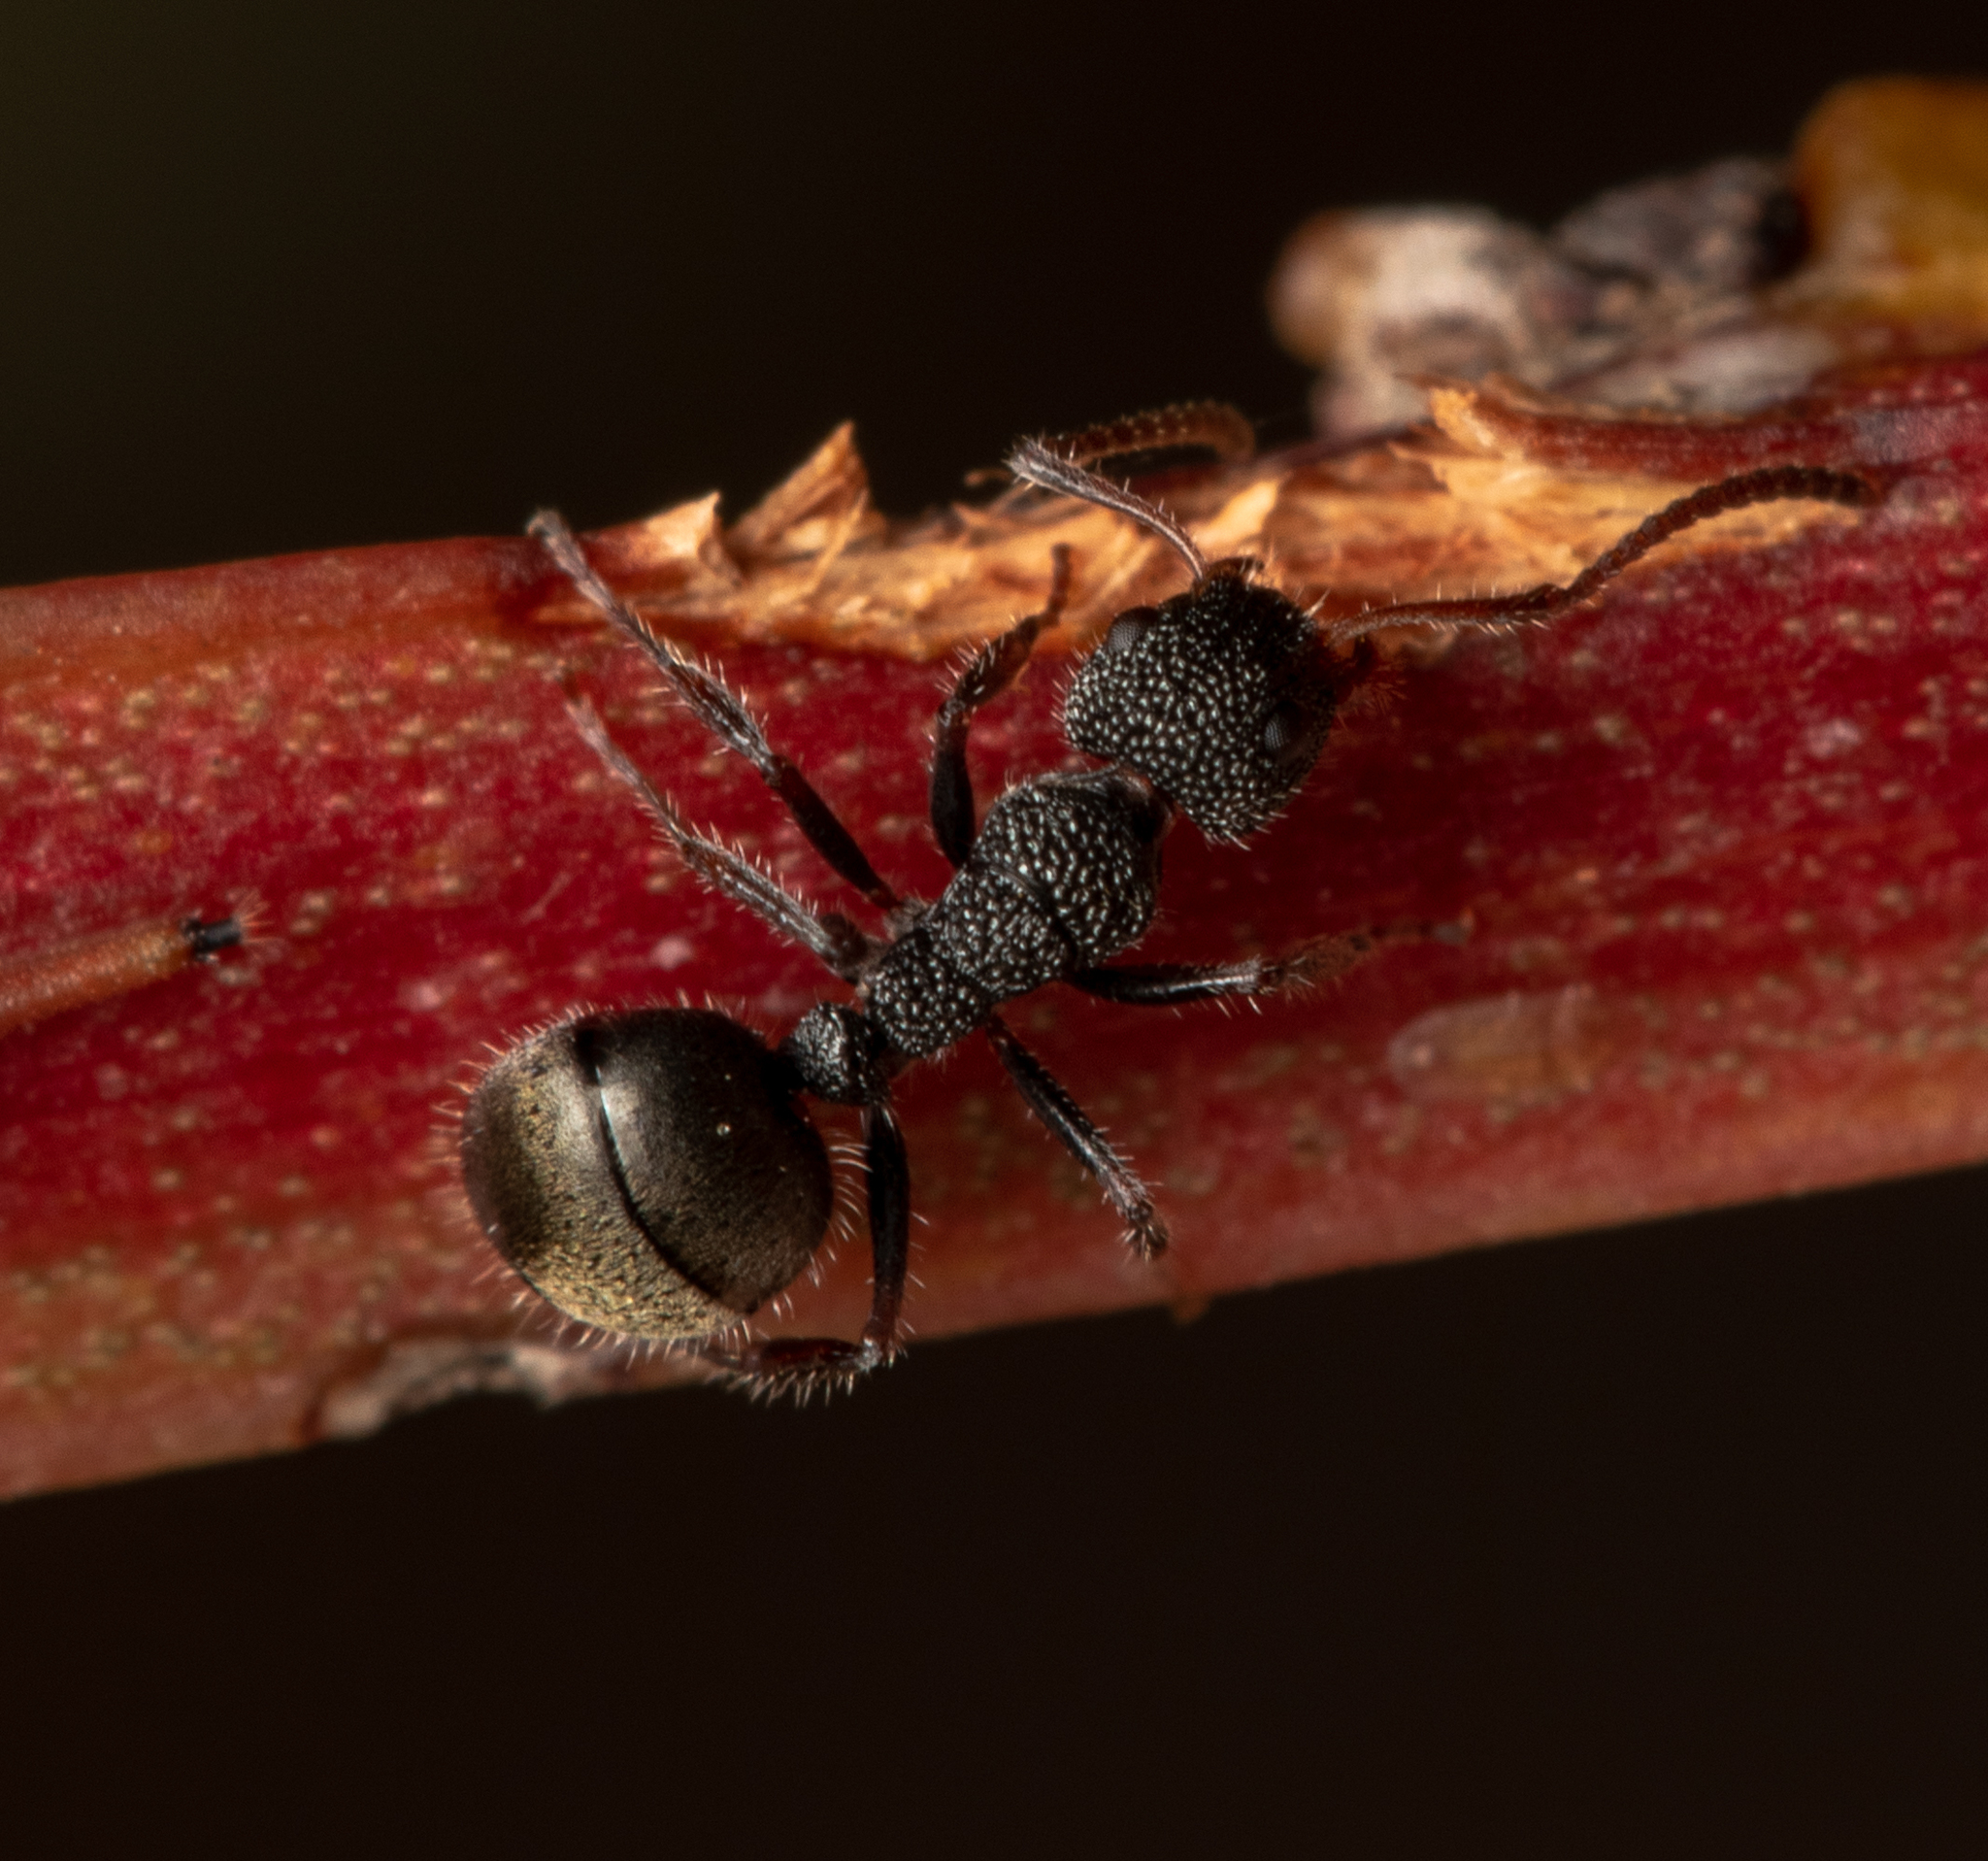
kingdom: Animalia
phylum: Arthropoda
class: Insecta
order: Hymenoptera
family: Formicidae
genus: Dolichoderus
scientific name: Dolichoderus scrobiculatus
